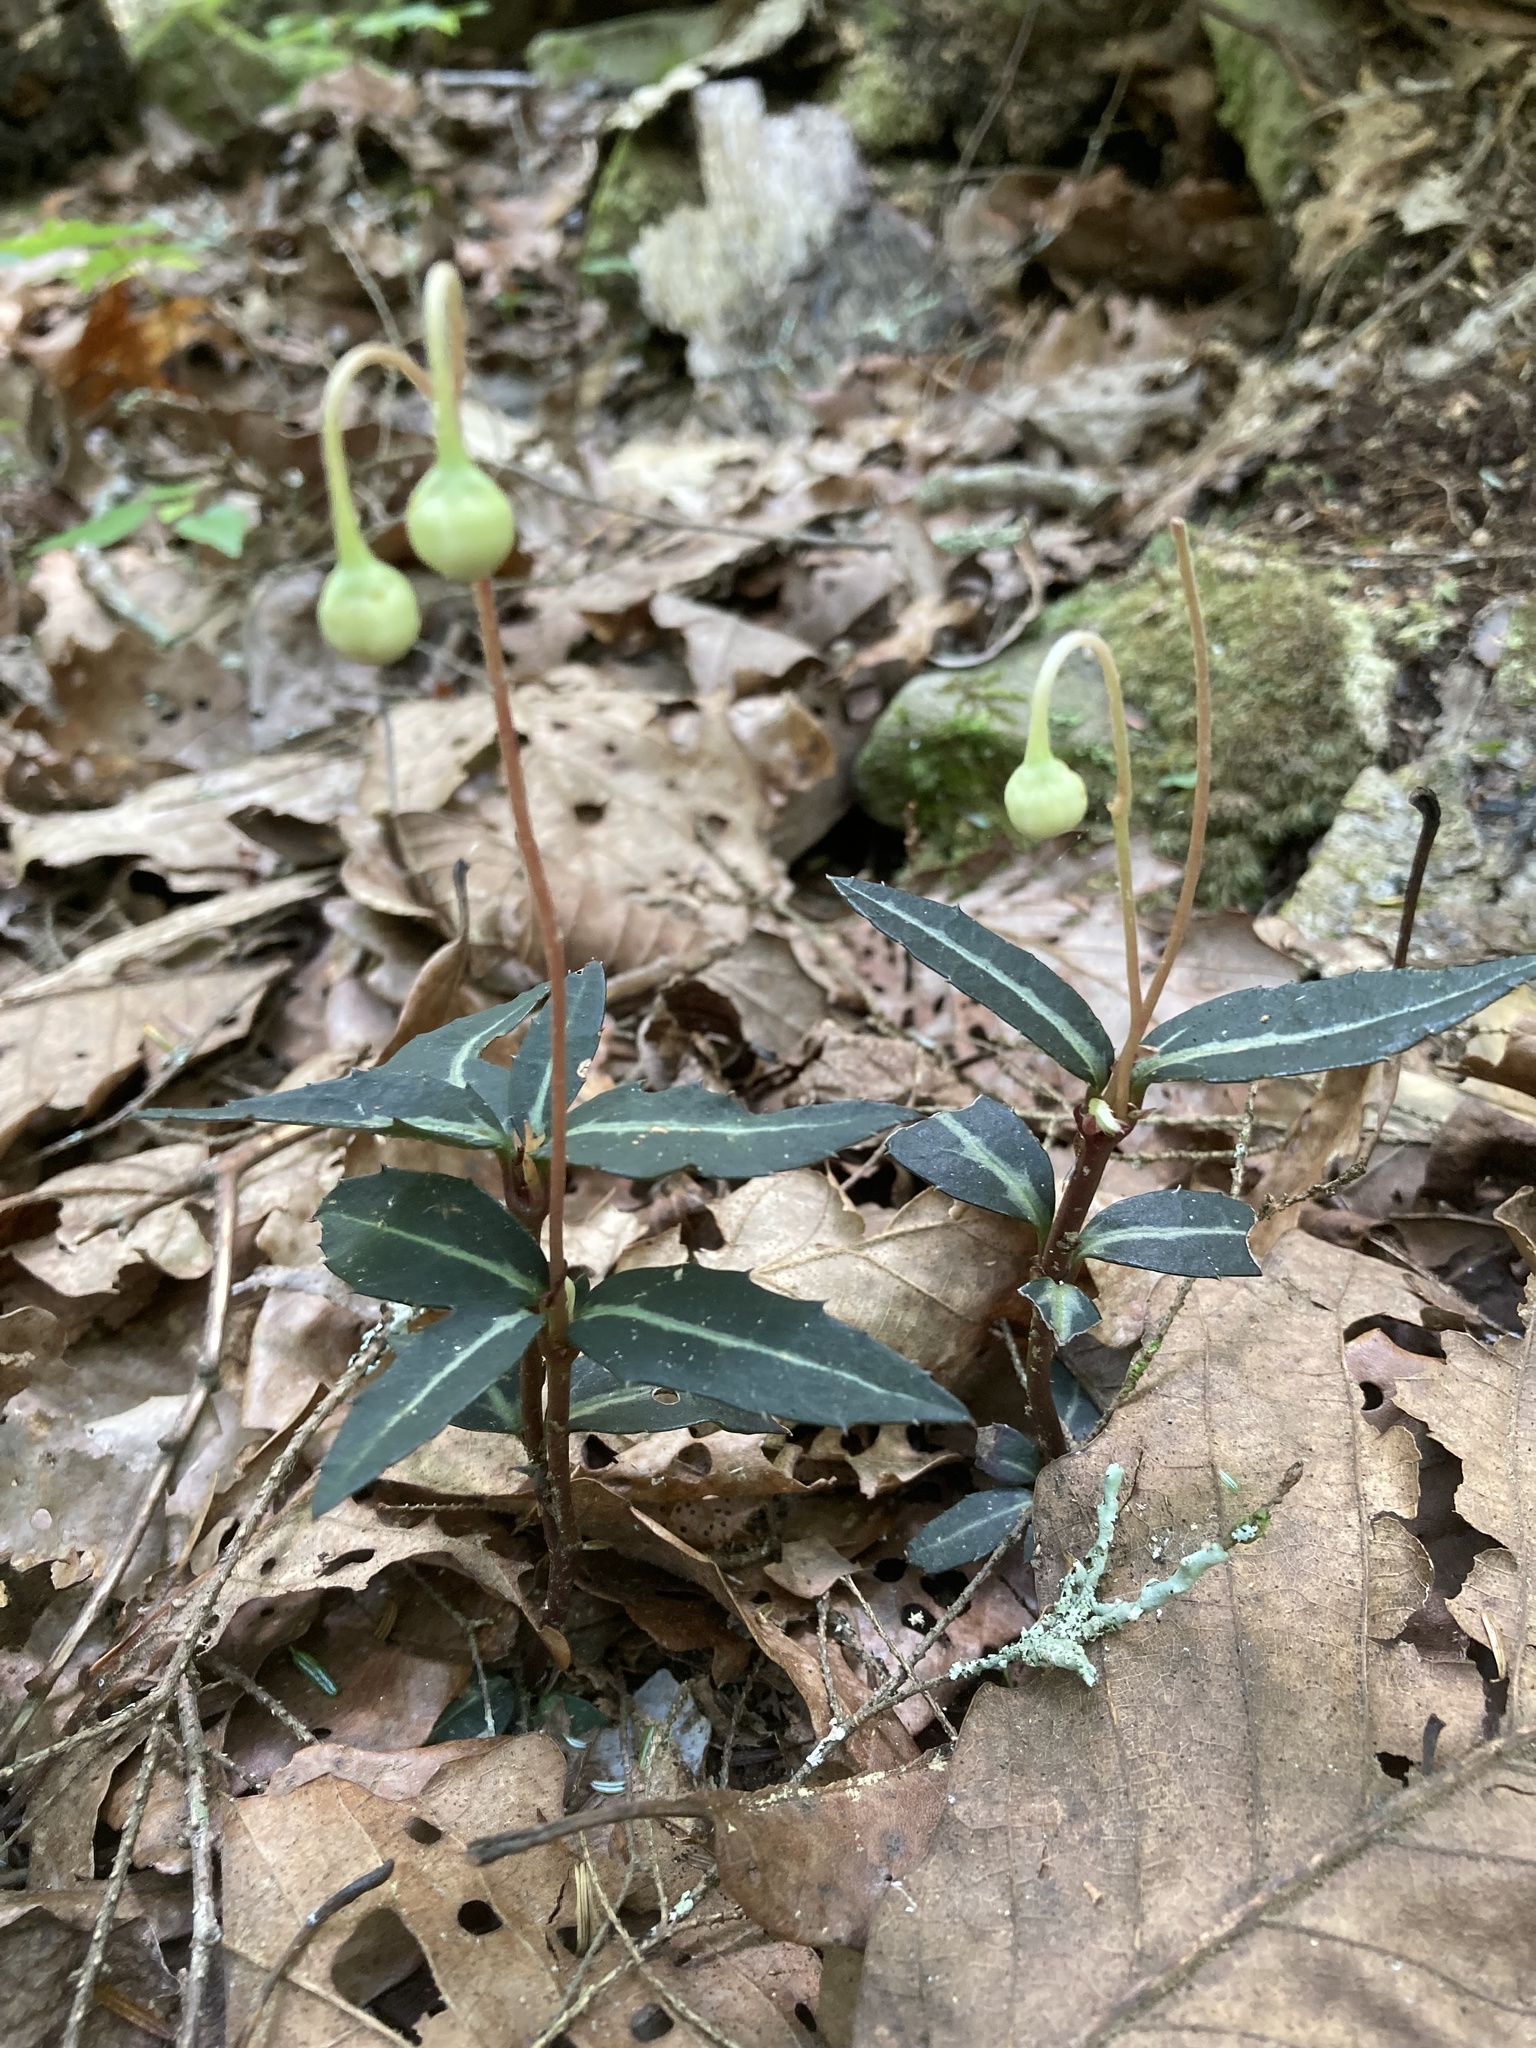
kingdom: Plantae
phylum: Tracheophyta
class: Magnoliopsida
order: Ericales
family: Ericaceae
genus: Chimaphila
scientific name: Chimaphila maculata
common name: Spotted pipsissewa
